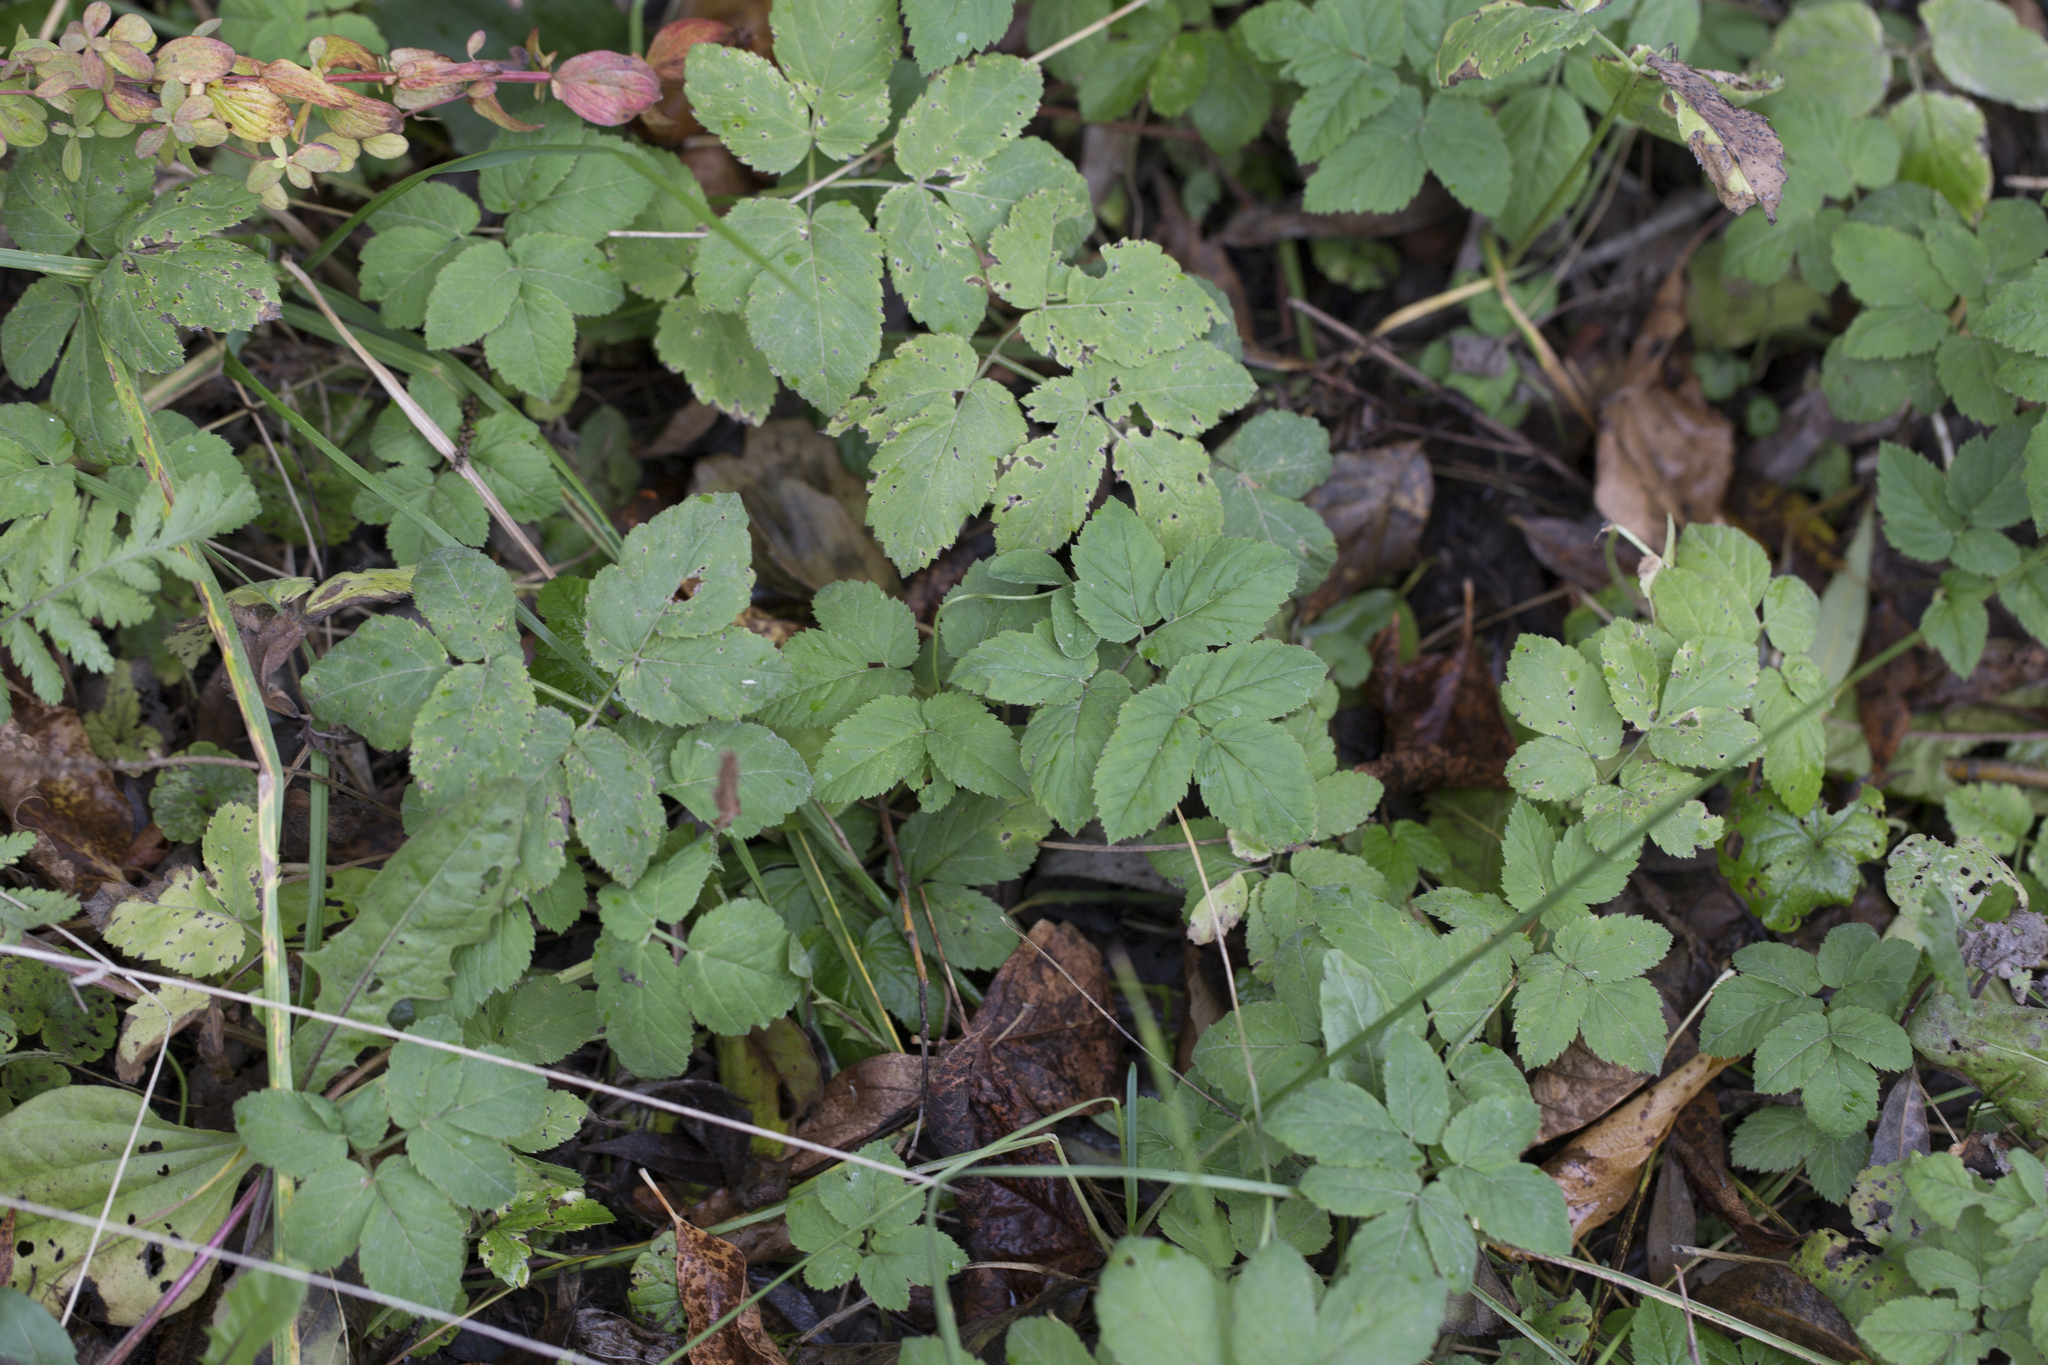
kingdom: Plantae
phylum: Tracheophyta
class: Magnoliopsida
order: Apiales
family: Apiaceae
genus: Aegopodium
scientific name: Aegopodium podagraria
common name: Ground-elder
